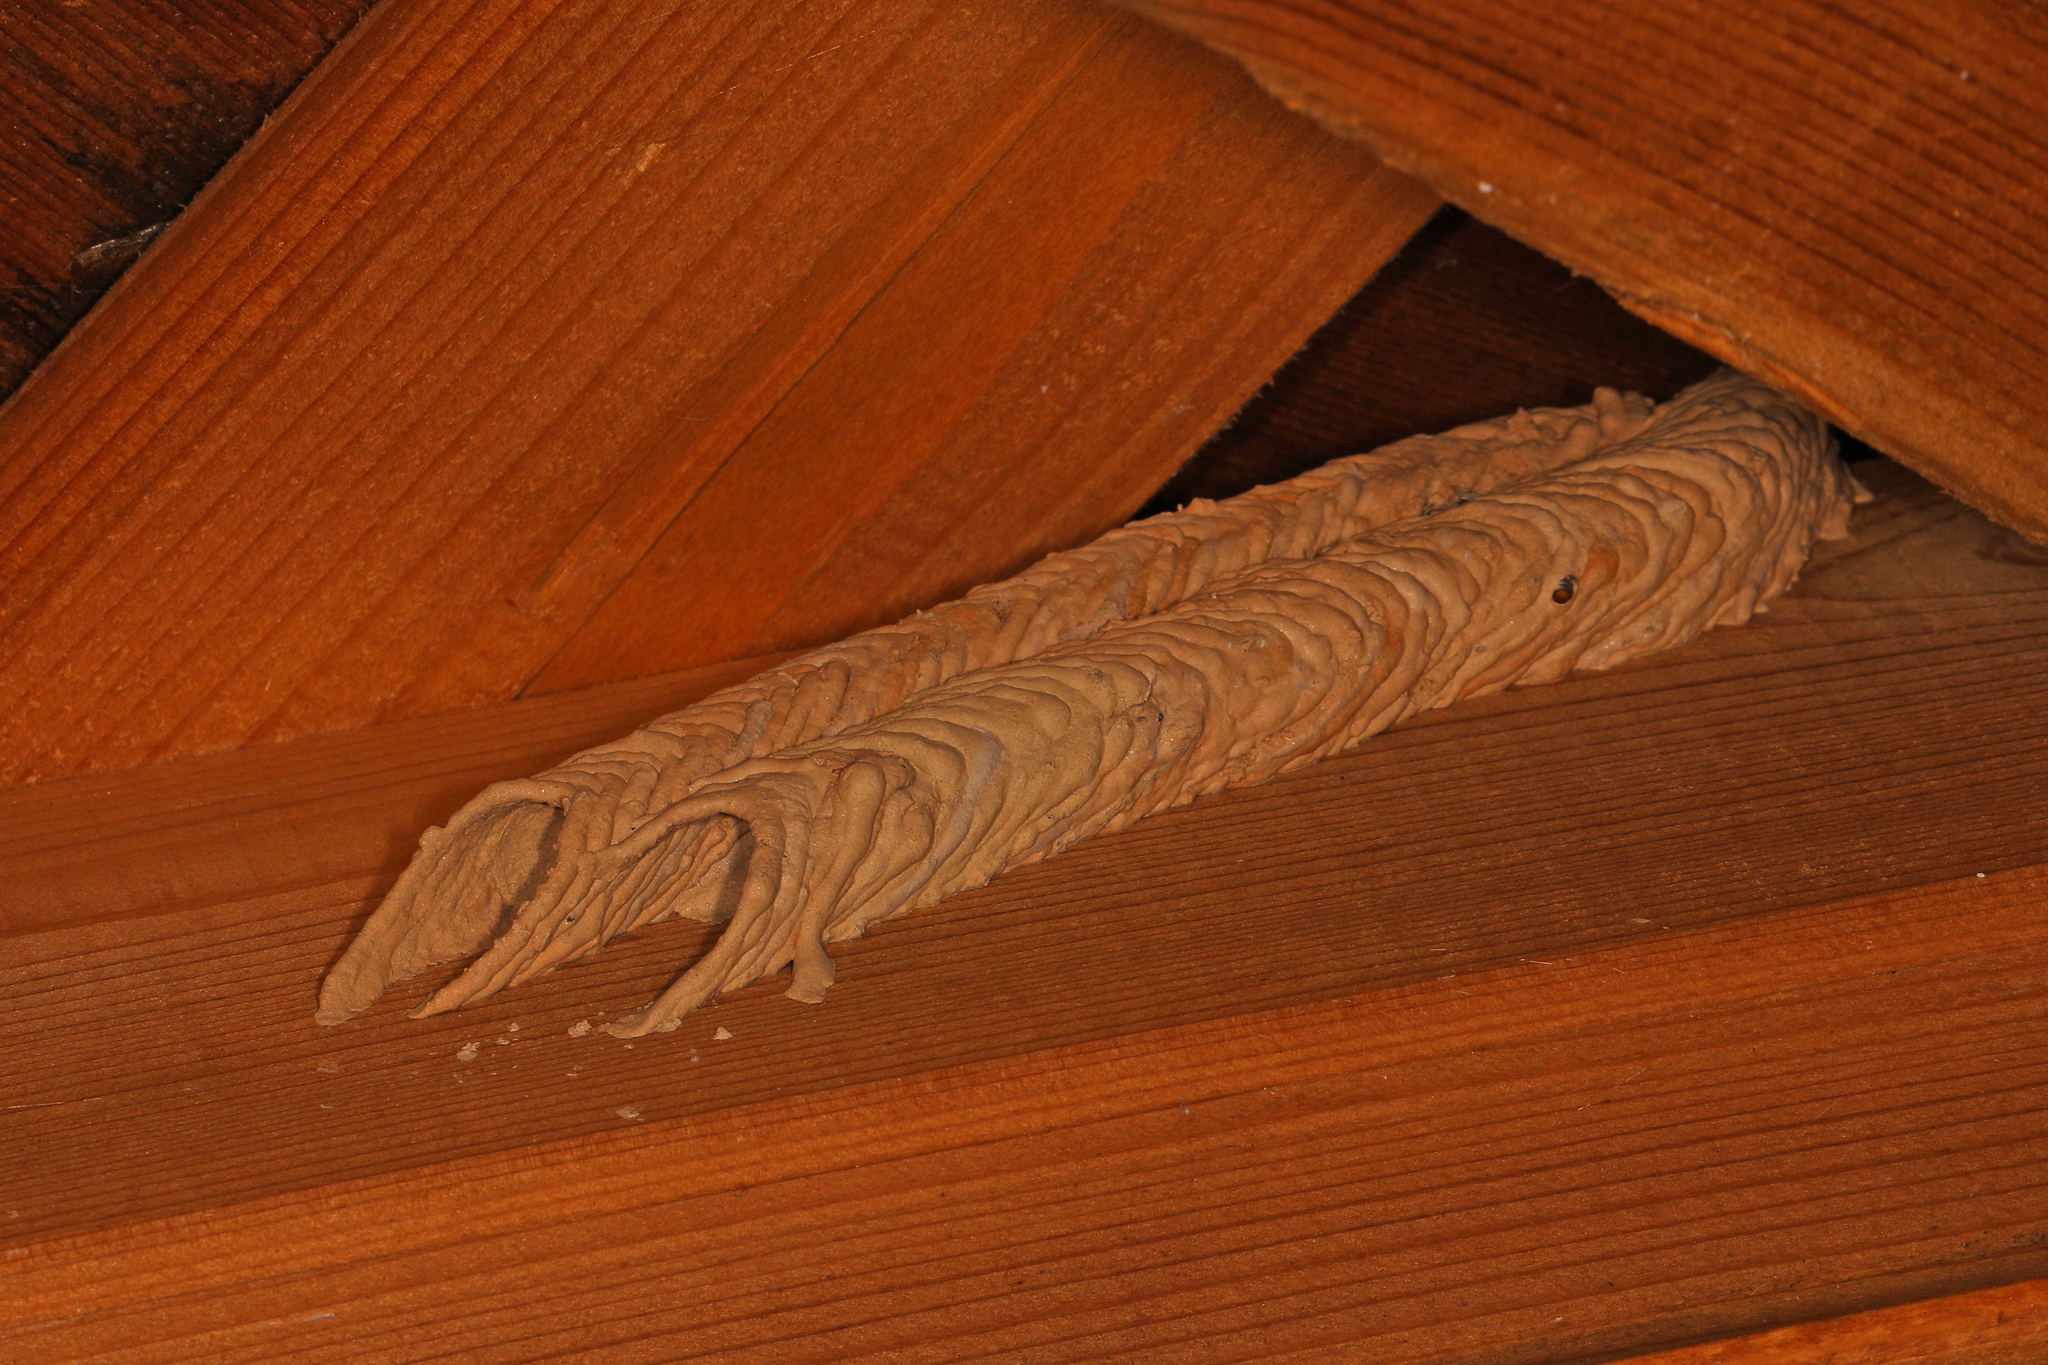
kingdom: Animalia
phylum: Arthropoda
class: Insecta
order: Hymenoptera
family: Crabronidae
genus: Trypoxylon
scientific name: Trypoxylon politum
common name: Organ-pipe mud-dauber wasp
